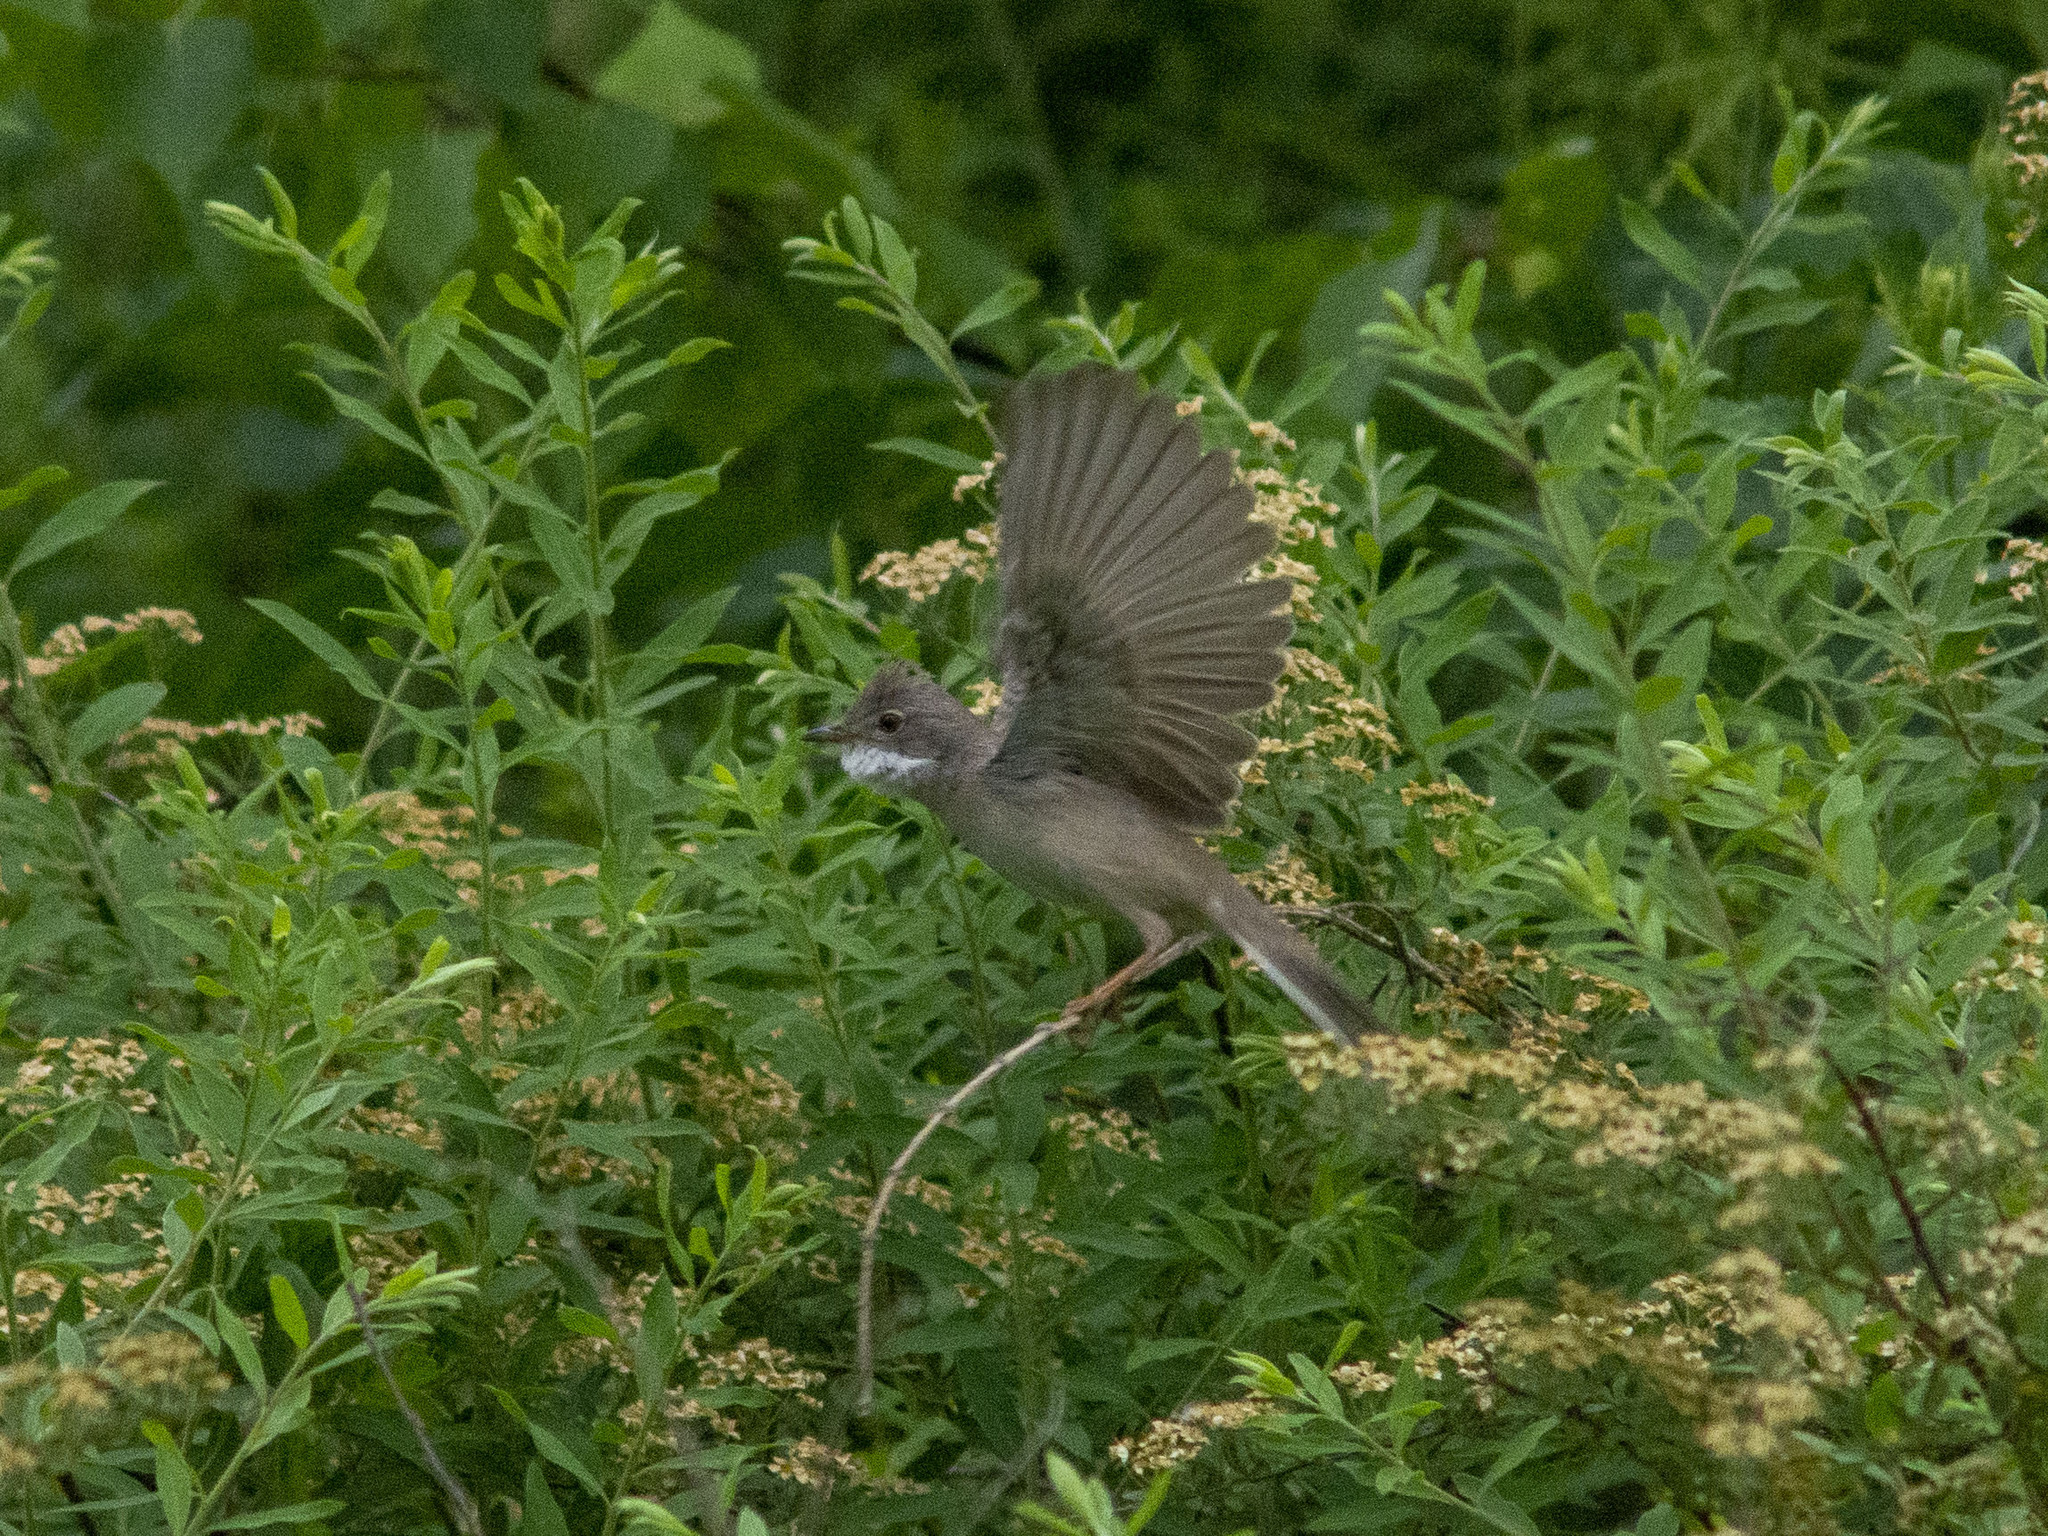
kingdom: Animalia
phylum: Chordata
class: Aves
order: Passeriformes
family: Sylviidae
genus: Sylvia
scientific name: Sylvia communis
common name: Common whitethroat
